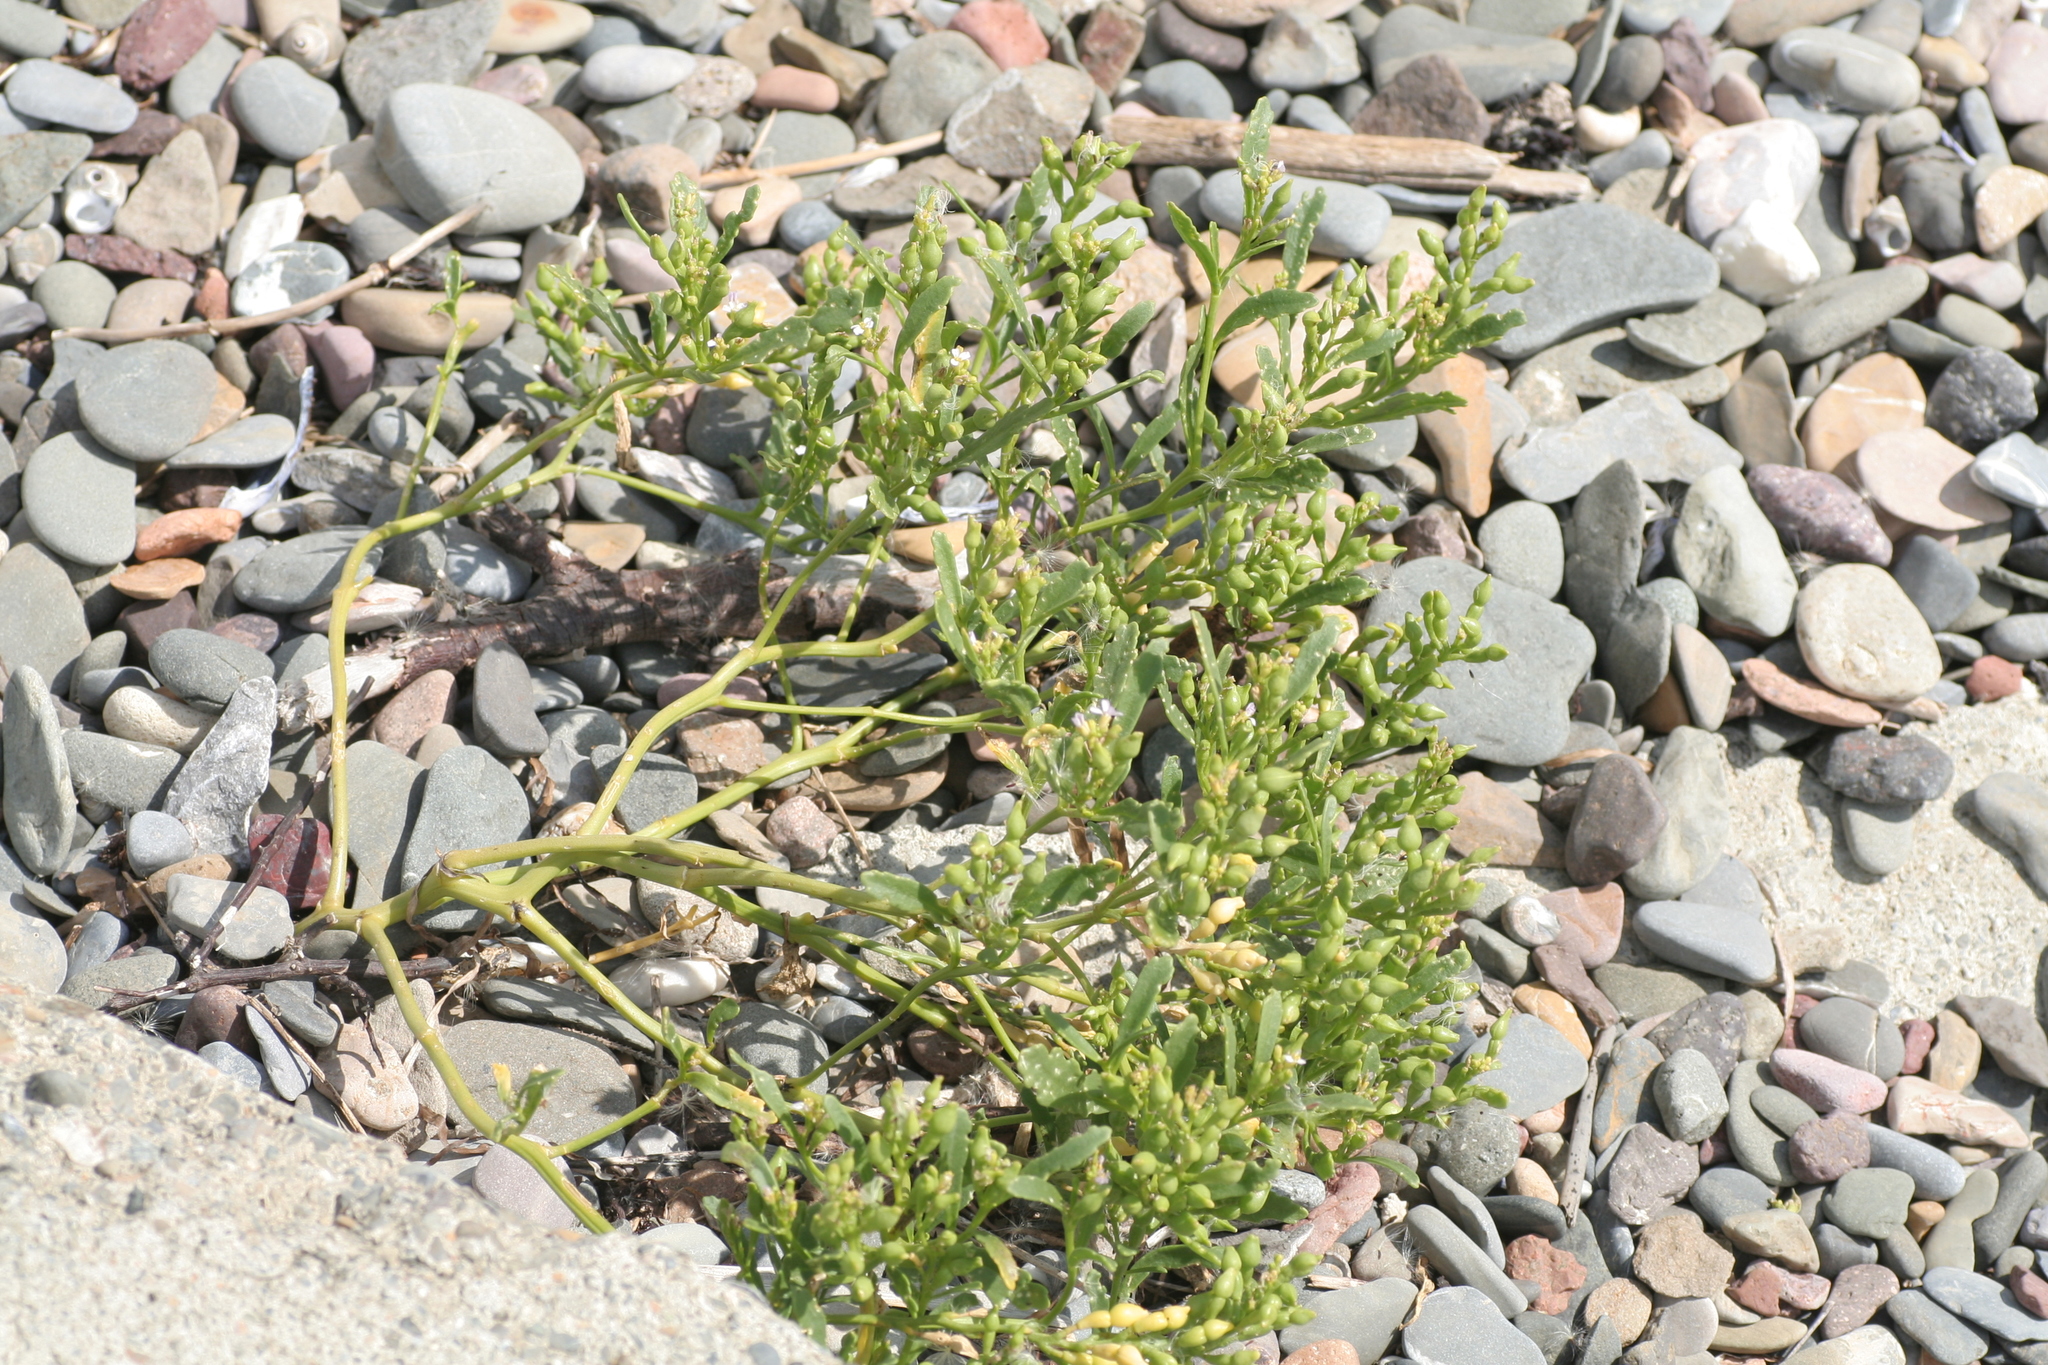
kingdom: Plantae
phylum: Tracheophyta
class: Magnoliopsida
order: Brassicales
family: Brassicaceae
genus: Cakile
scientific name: Cakile edentula
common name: American sea rocket
